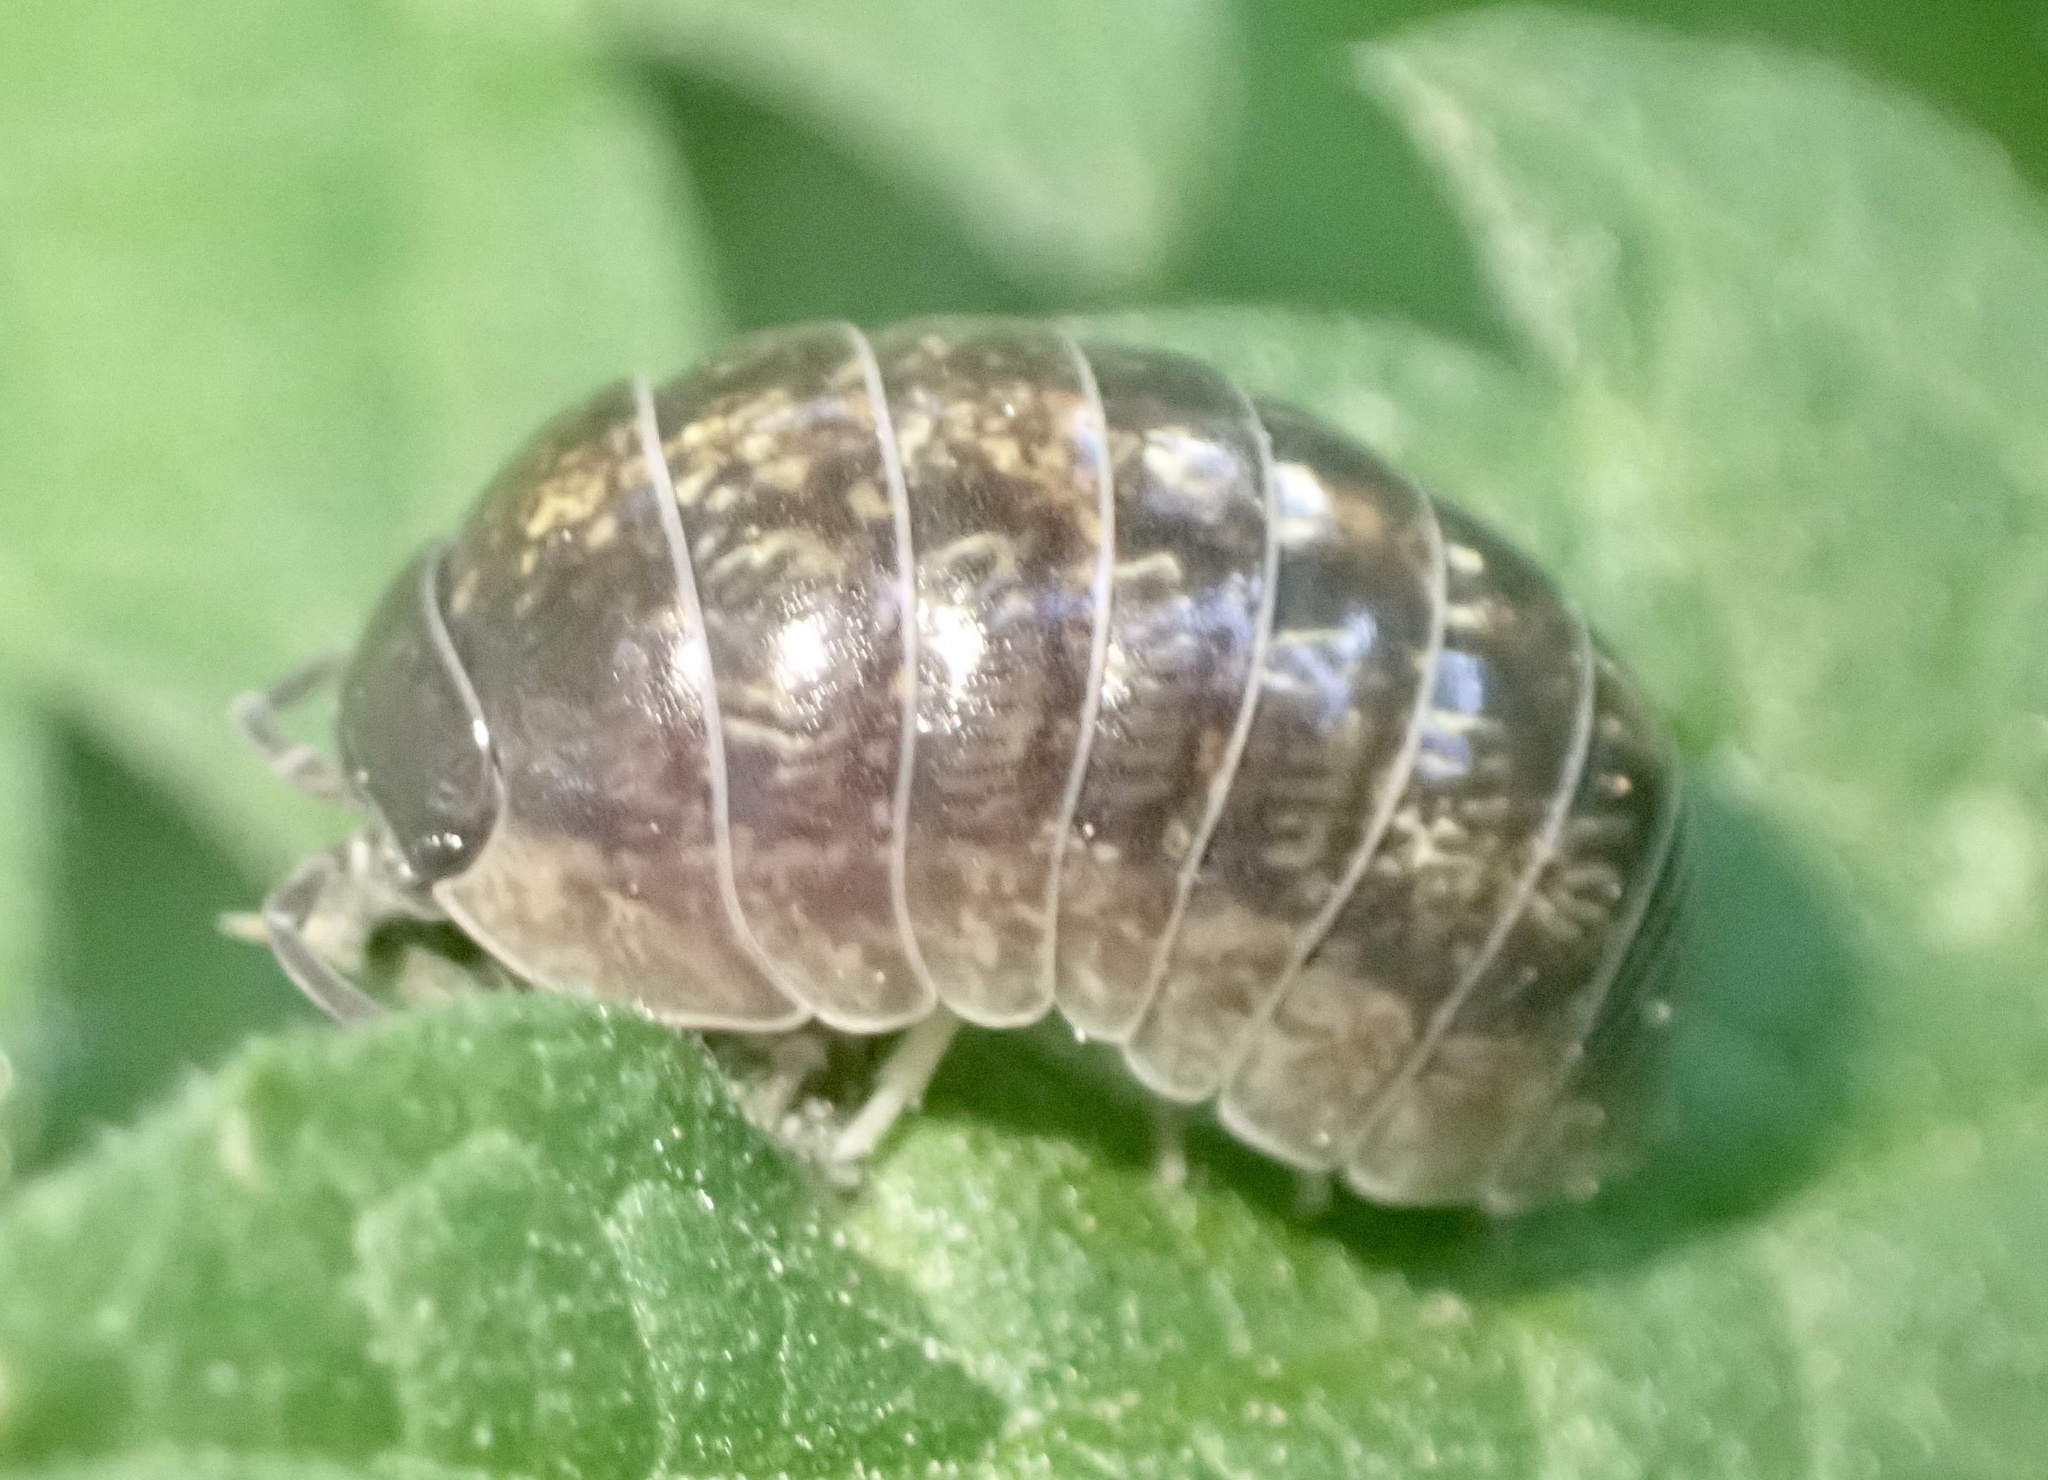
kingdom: Animalia
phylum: Arthropoda
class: Malacostraca
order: Isopoda
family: Armadillidiidae
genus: Armadillidium
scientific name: Armadillidium vulgare
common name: Common pill woodlouse
